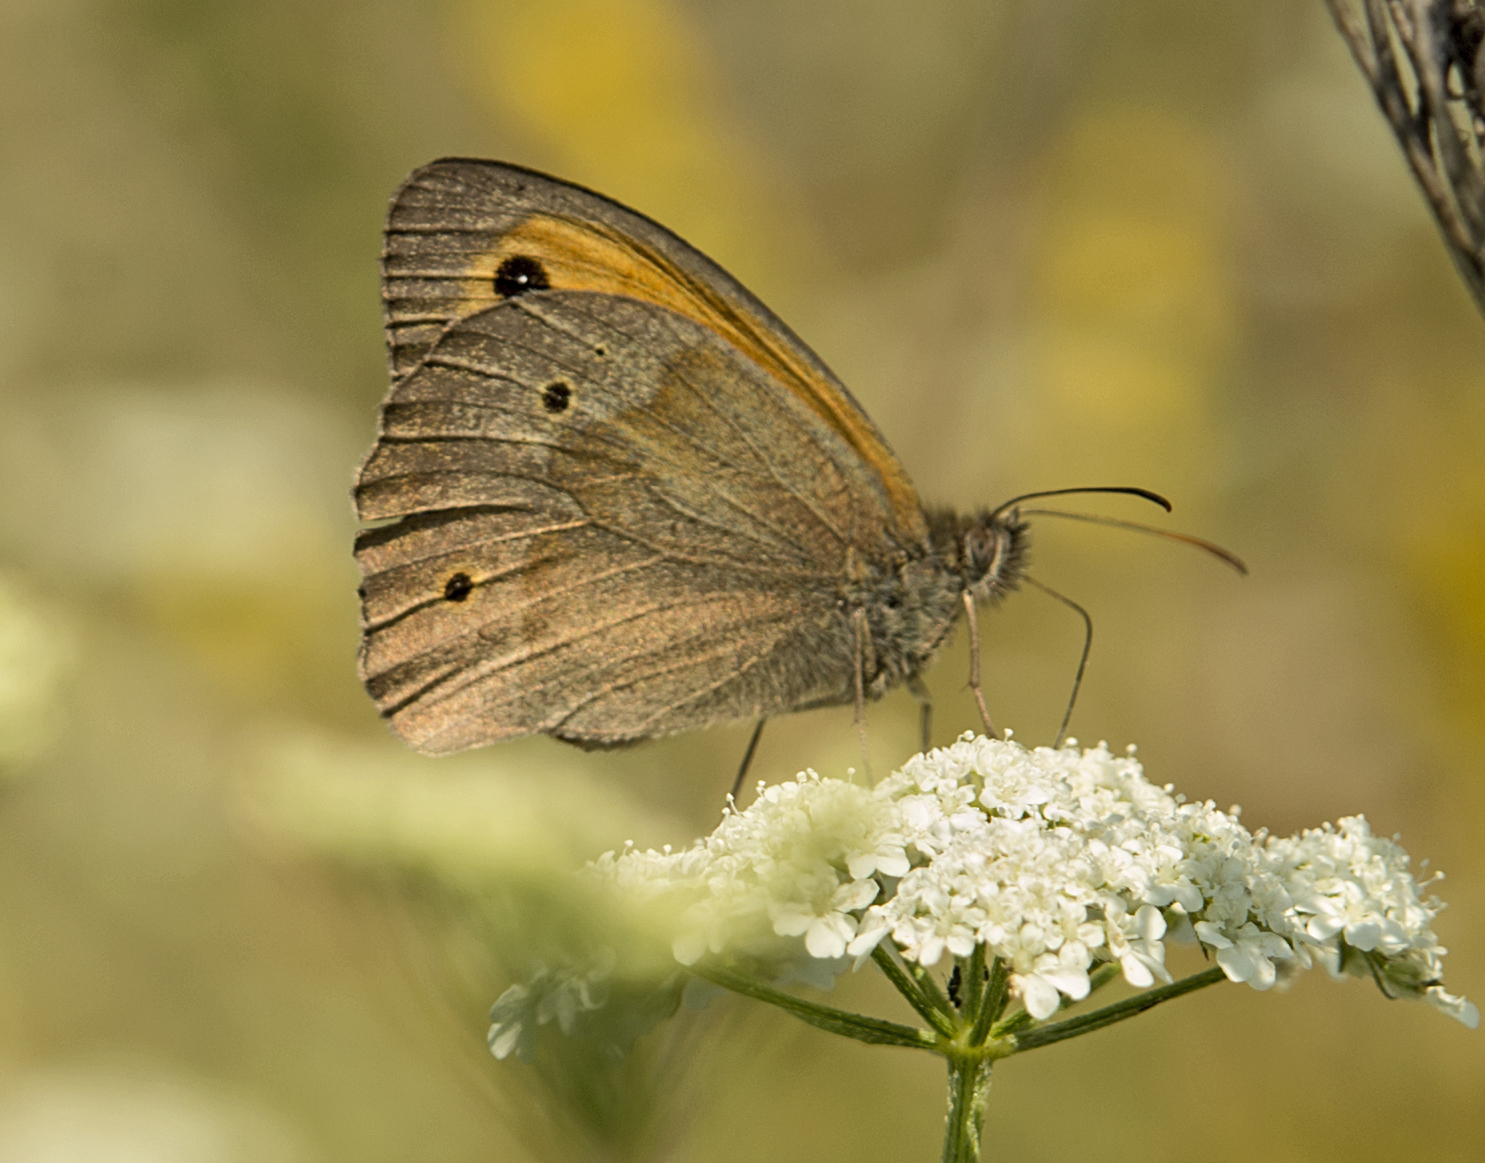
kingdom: Animalia
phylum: Arthropoda
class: Insecta
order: Lepidoptera
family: Nymphalidae
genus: Maniola
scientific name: Maniola jurtina
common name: Meadow brown
